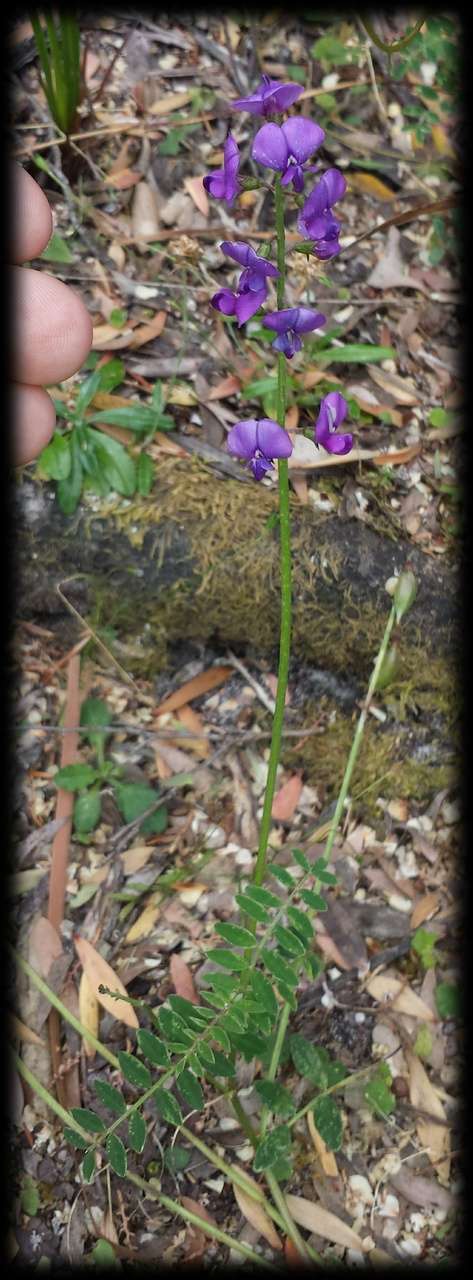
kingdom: Plantae
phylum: Tracheophyta
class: Magnoliopsida
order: Fabales
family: Fabaceae
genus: Swainsona
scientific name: Swainsona lessertiifolia
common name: Bog-pea
